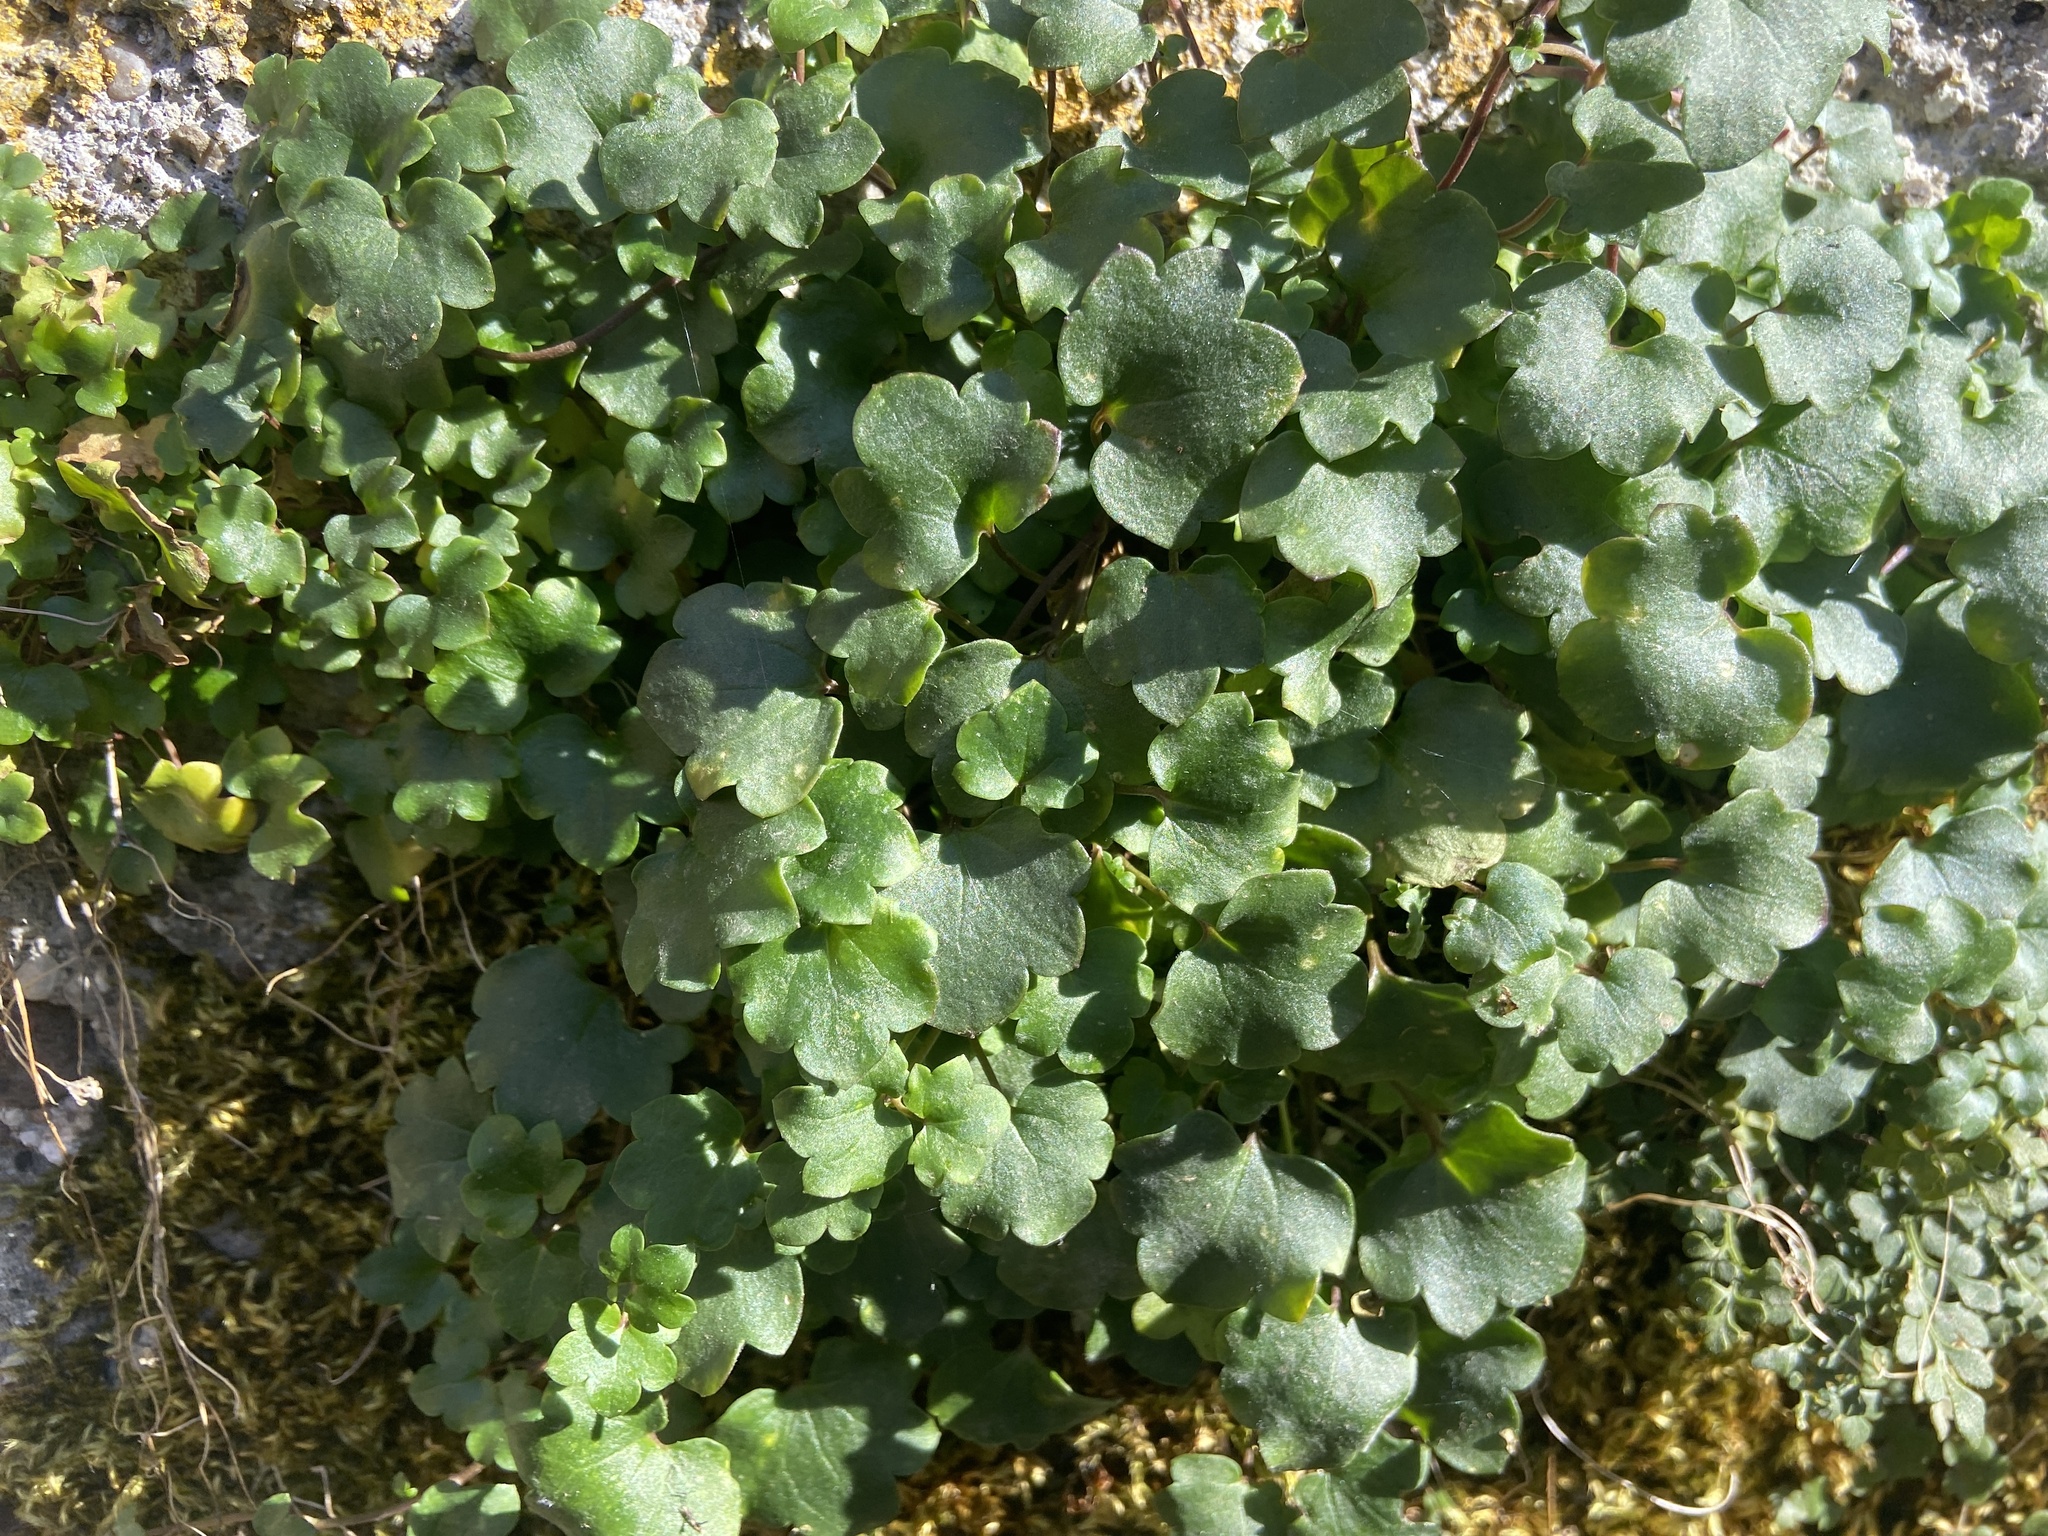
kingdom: Plantae
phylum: Tracheophyta
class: Magnoliopsida
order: Lamiales
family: Plantaginaceae
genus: Cymbalaria
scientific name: Cymbalaria muralis
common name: Ivy-leaved toadflax
